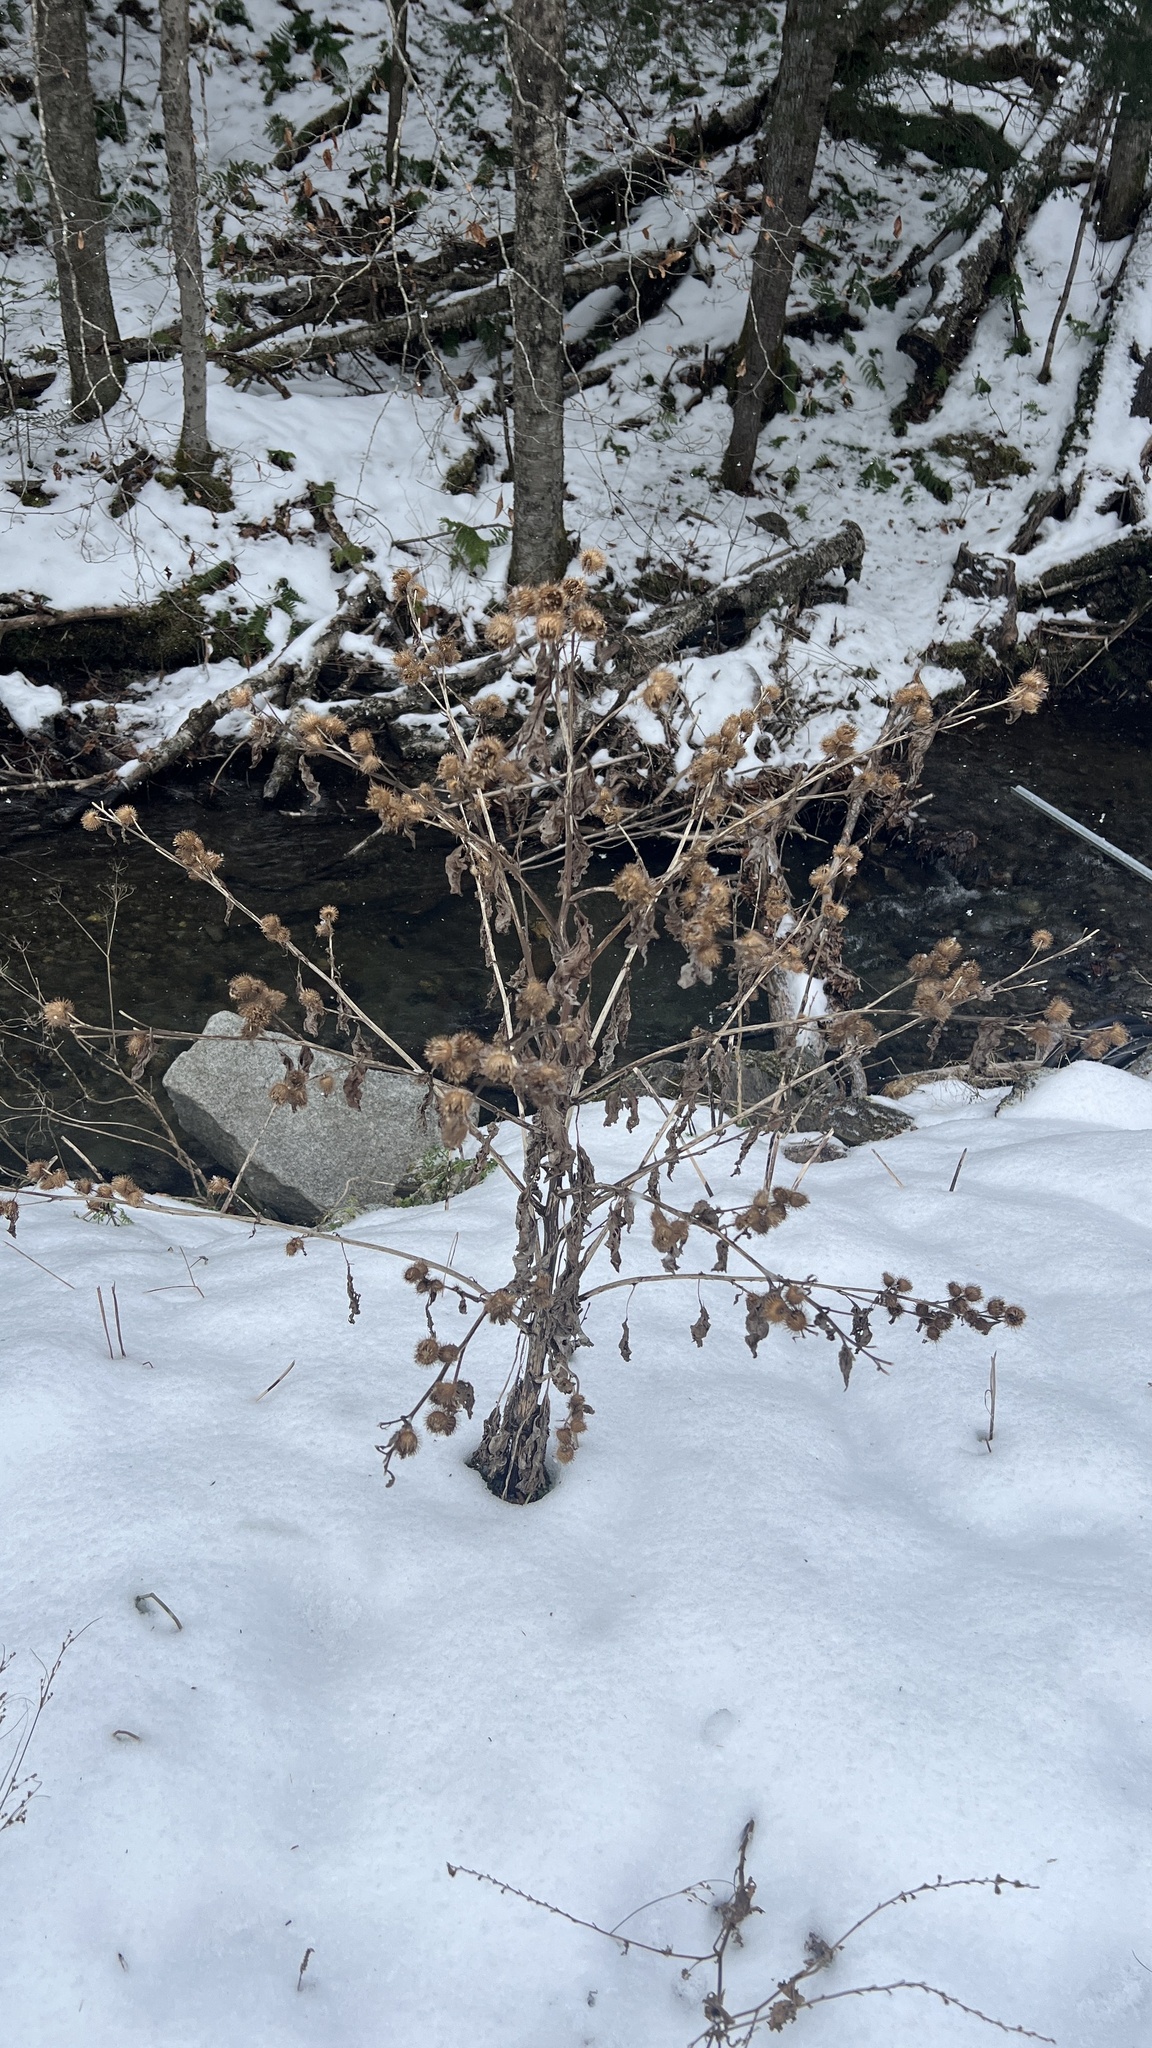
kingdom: Plantae
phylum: Tracheophyta
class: Magnoliopsida
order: Asterales
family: Asteraceae
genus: Arctium
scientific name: Arctium minus
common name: Lesser burdock
